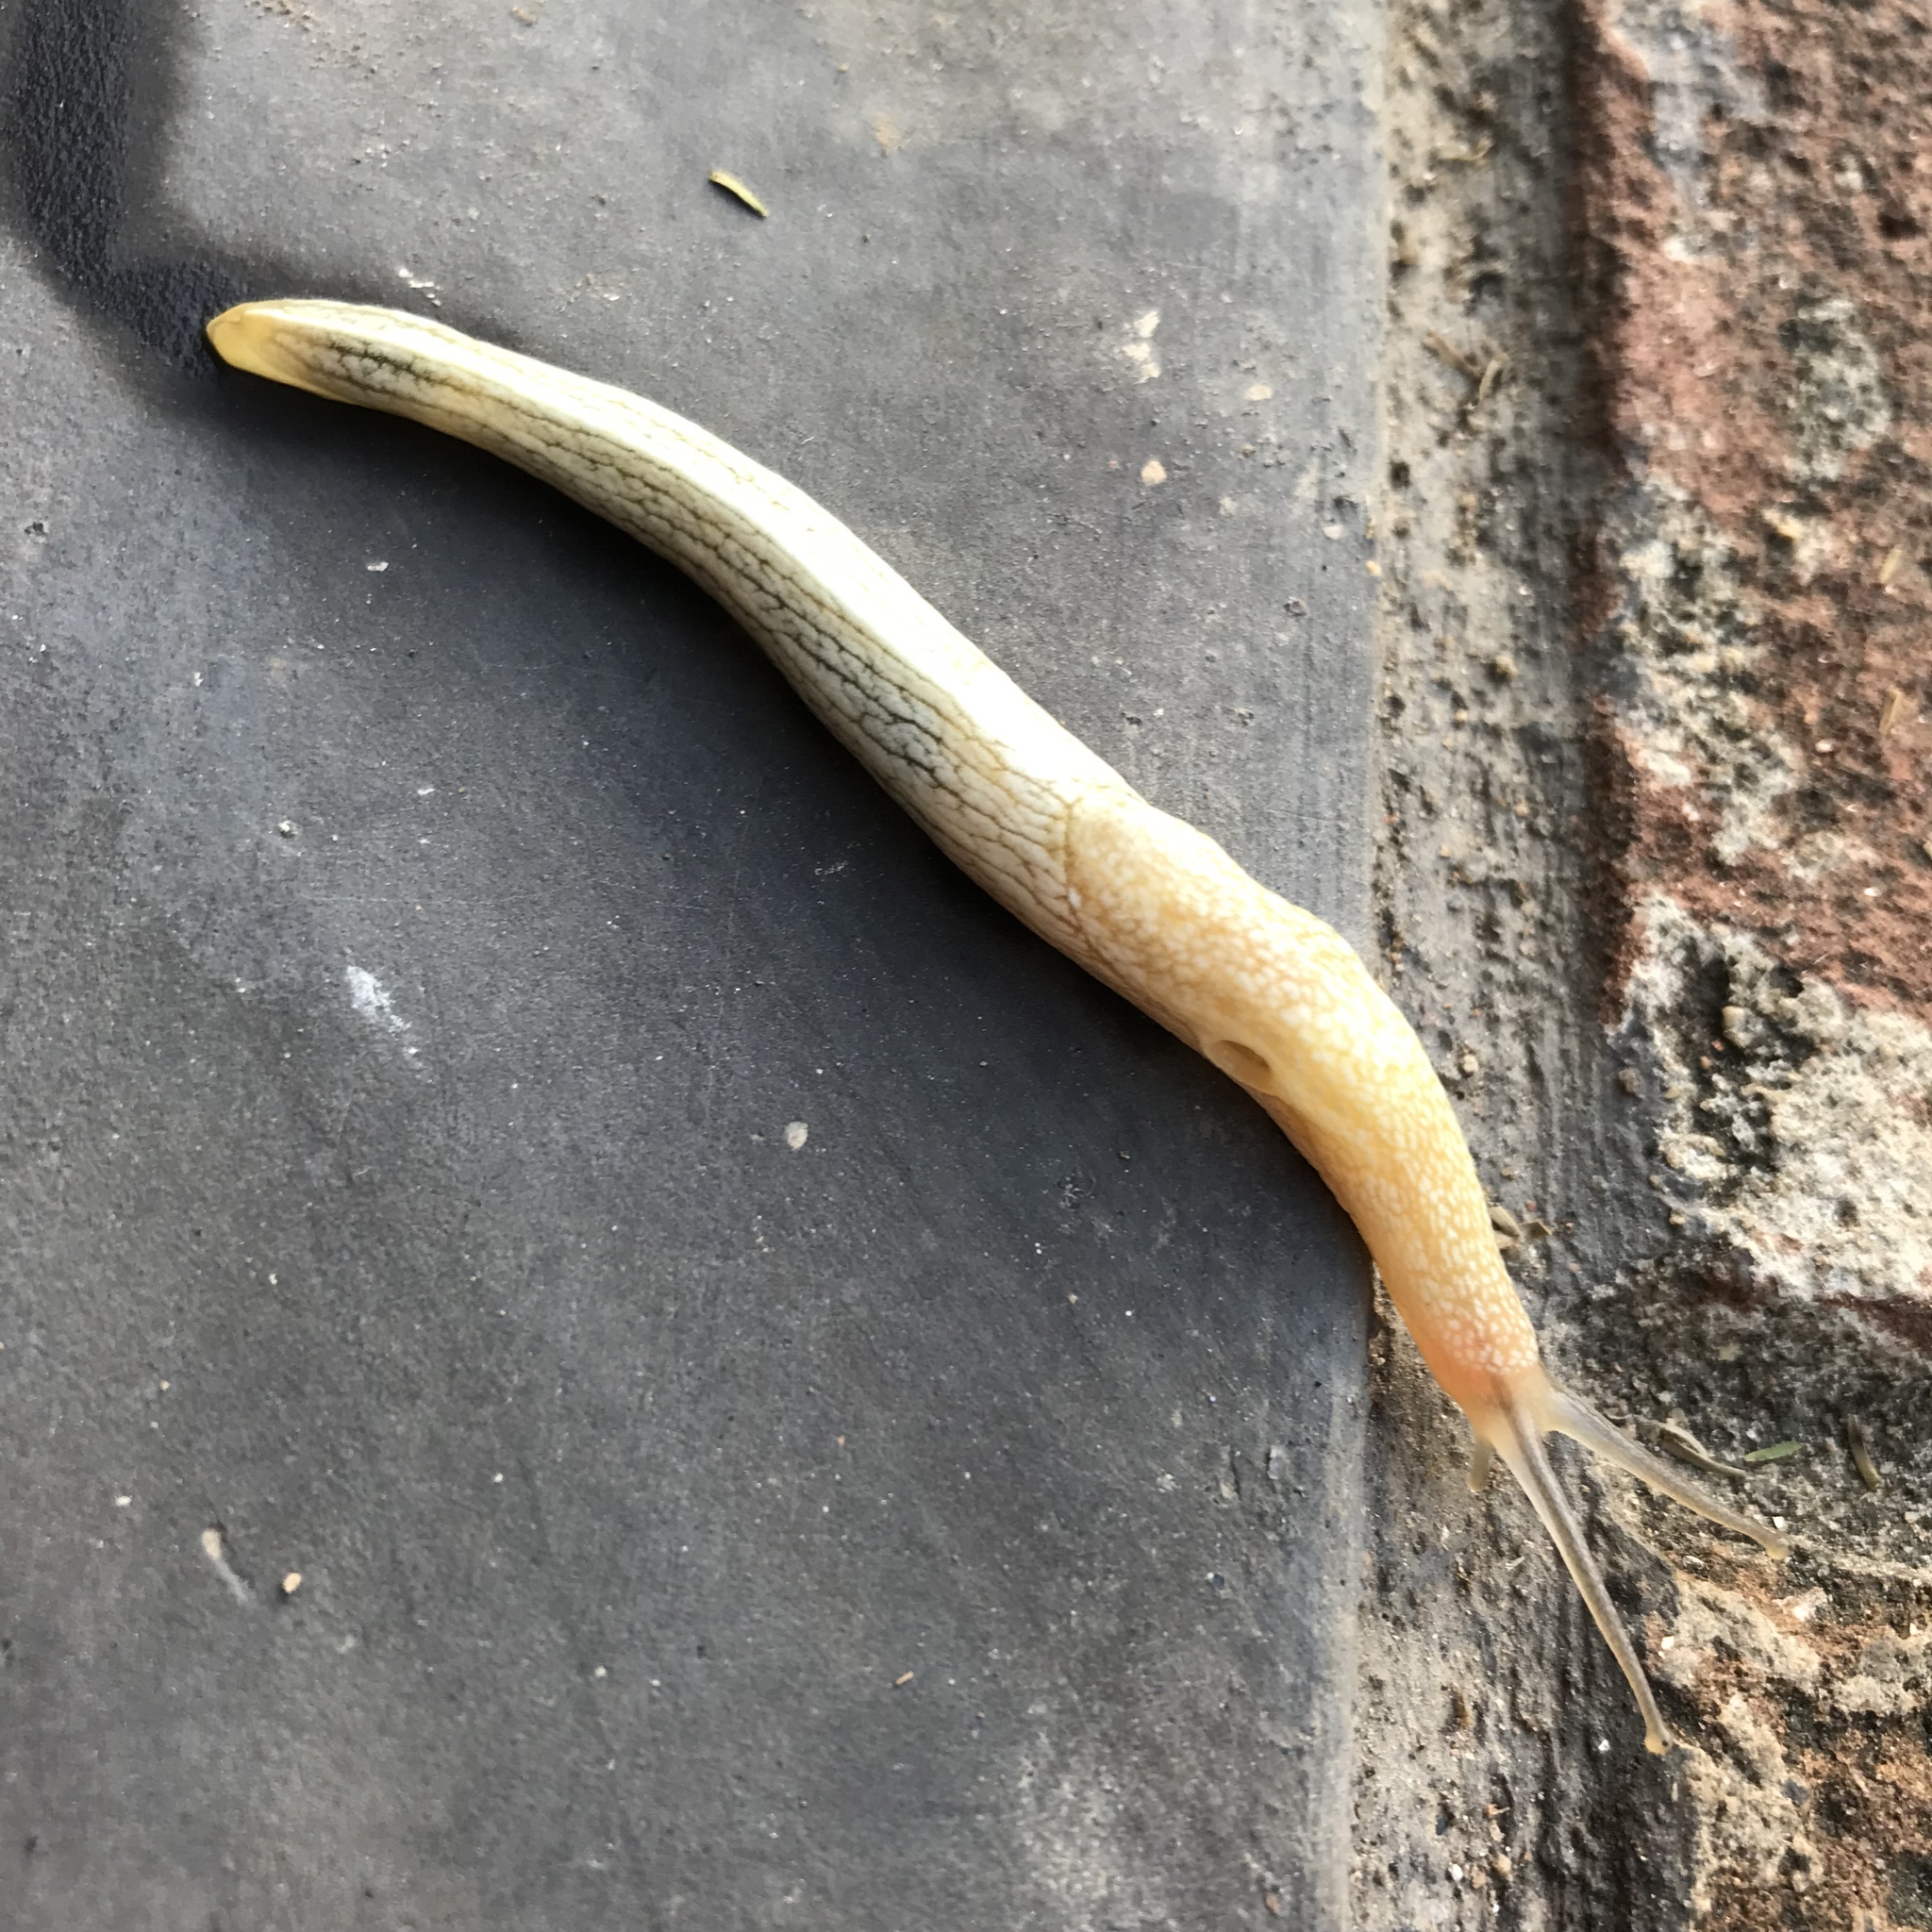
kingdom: Animalia
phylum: Mollusca
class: Gastropoda
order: Stylommatophora
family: Urocyclidae
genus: Elisolimax
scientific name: Elisolimax flavescens
